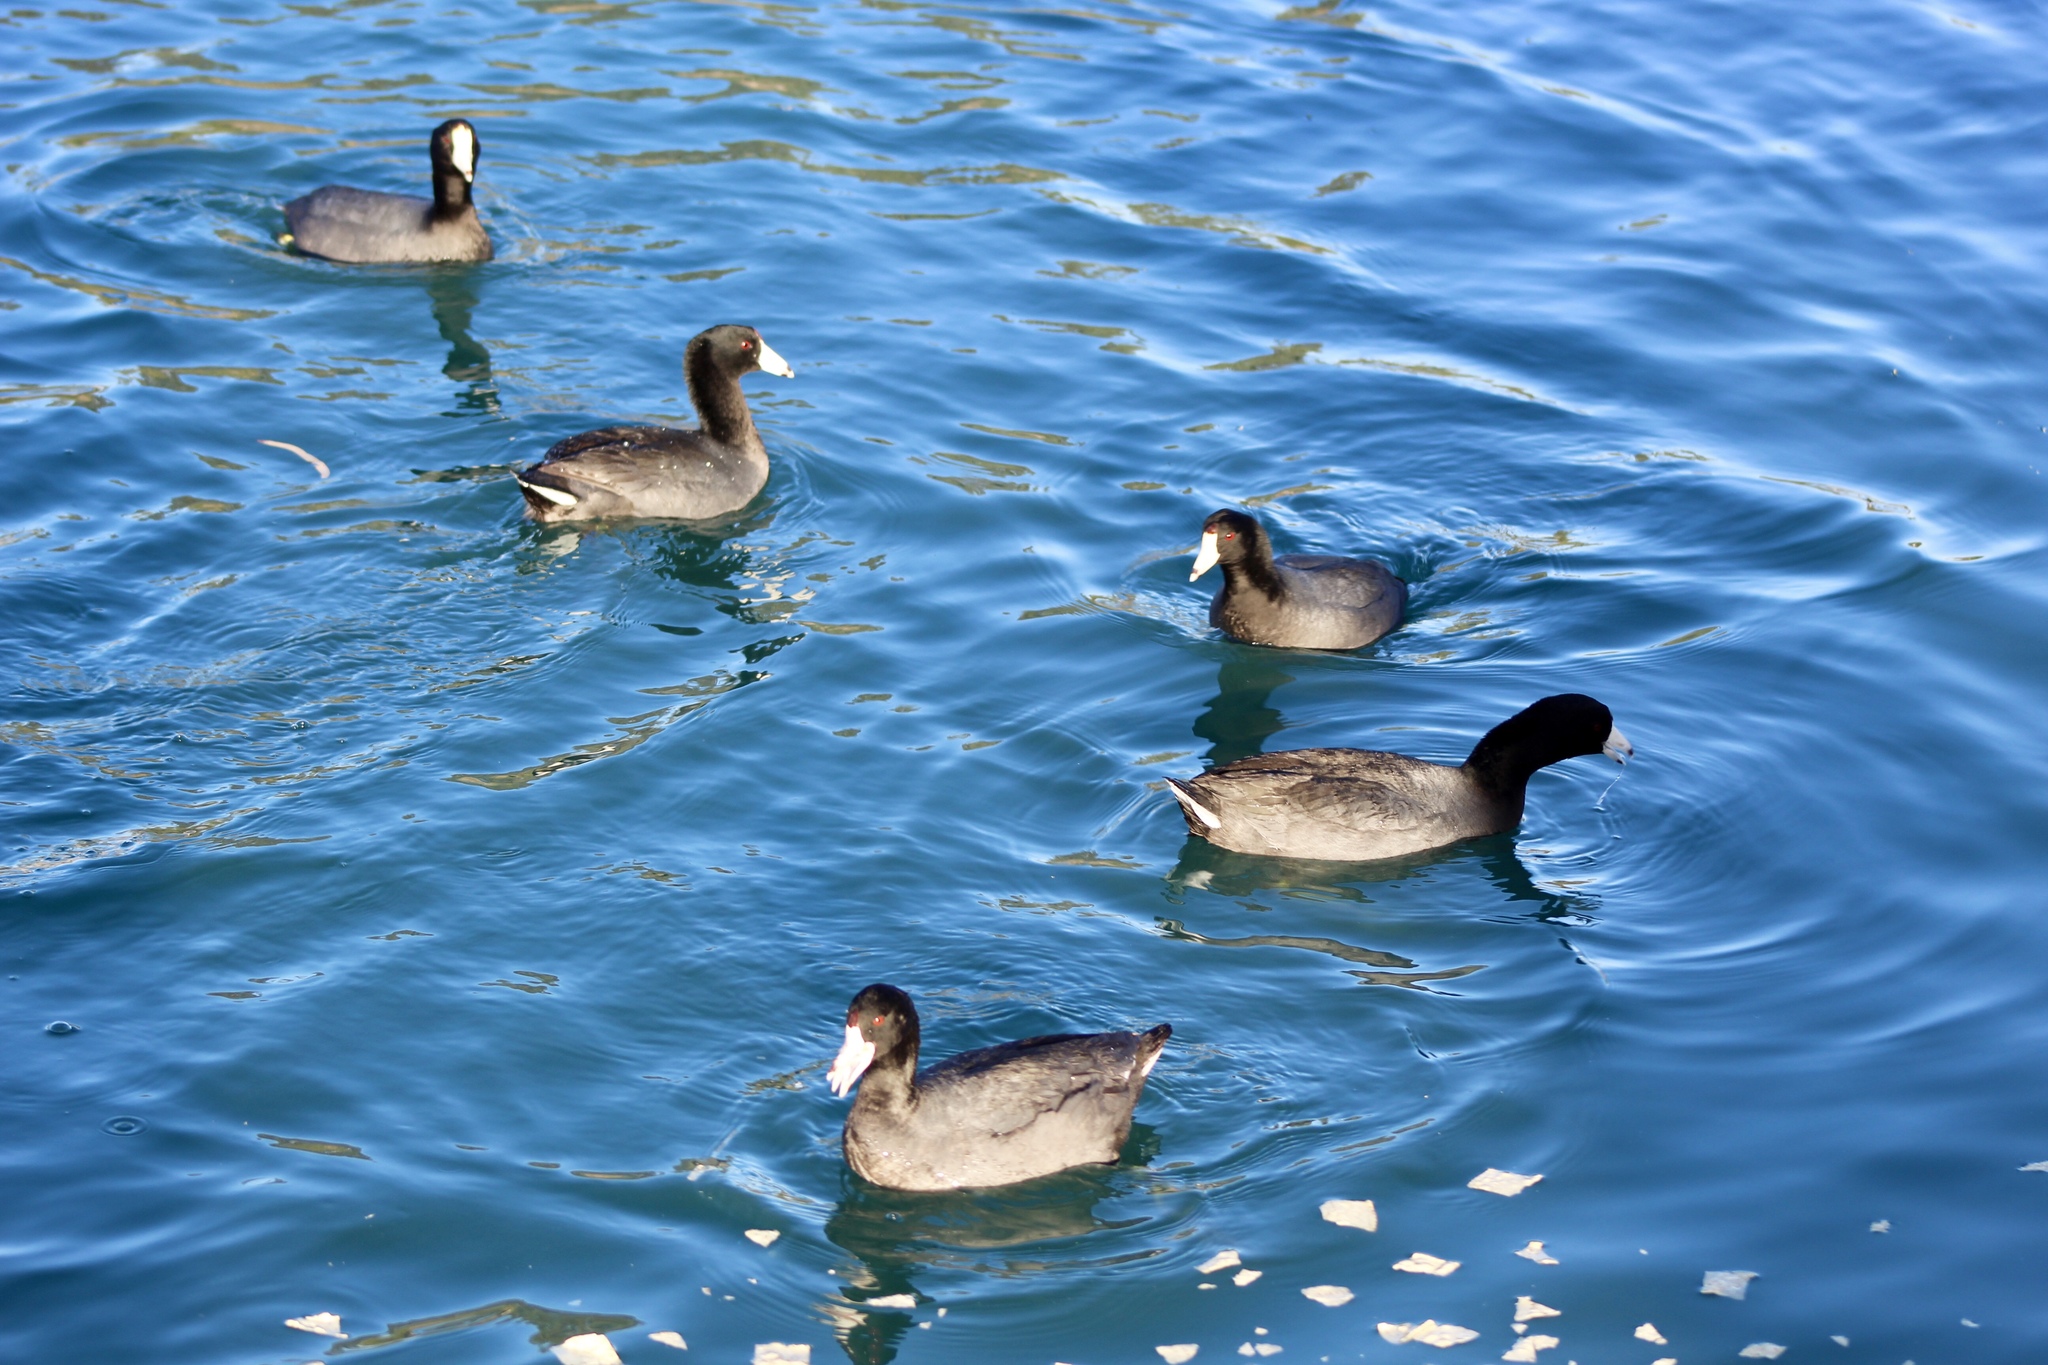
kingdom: Animalia
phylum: Chordata
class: Aves
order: Gruiformes
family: Rallidae
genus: Fulica
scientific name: Fulica americana
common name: American coot
